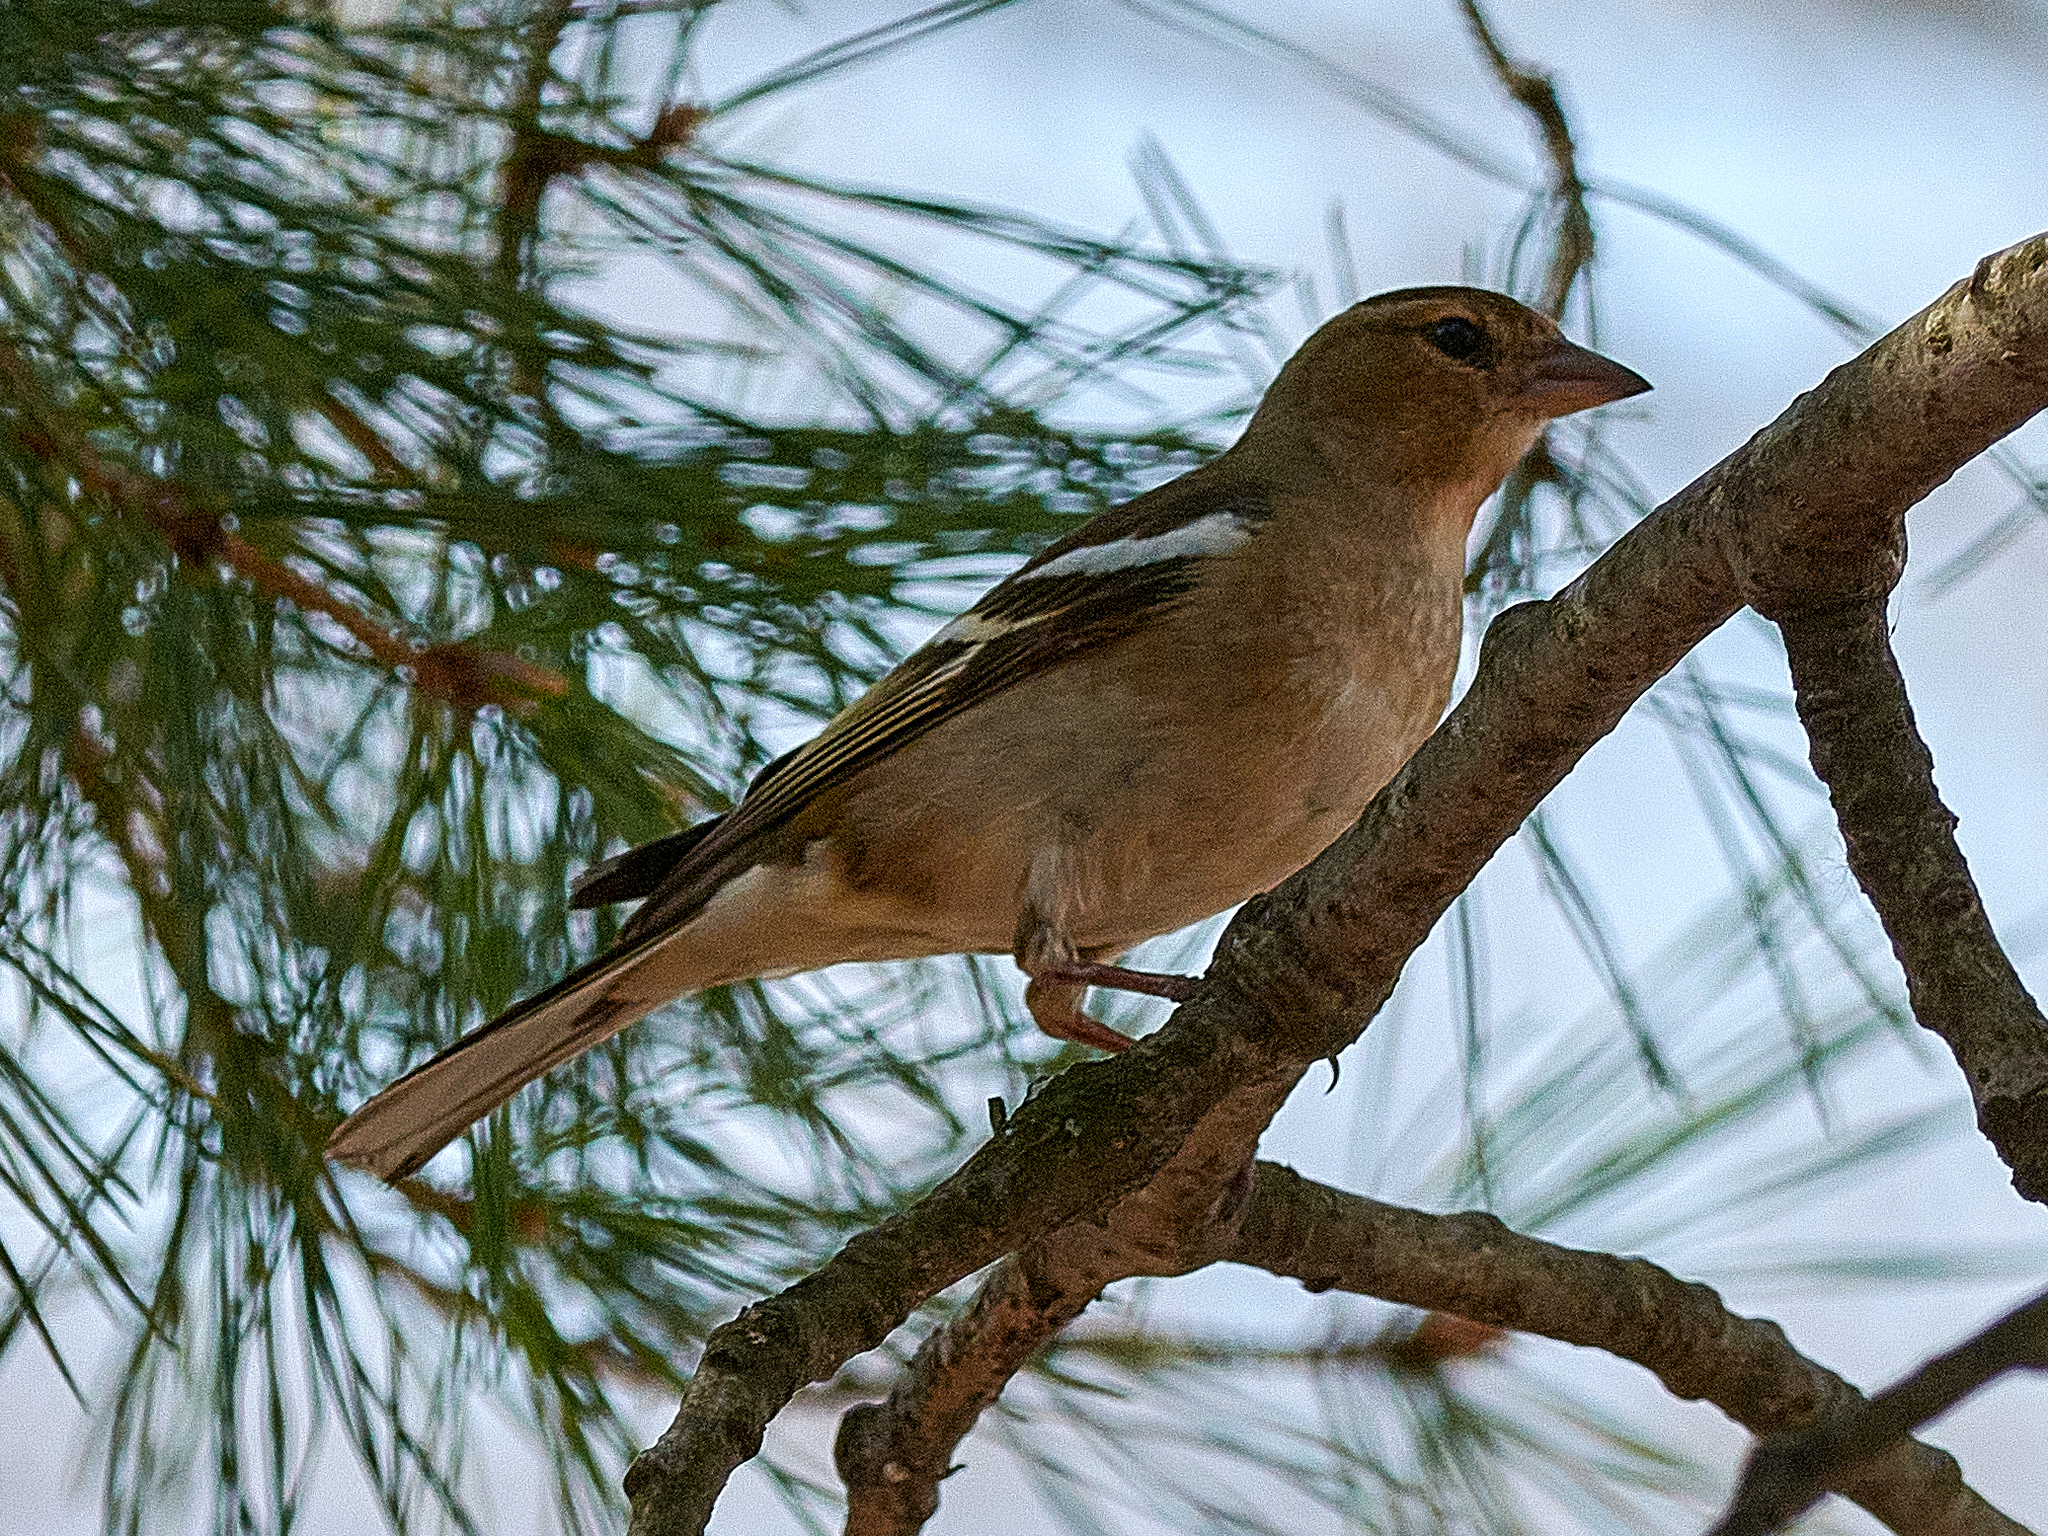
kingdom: Animalia
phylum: Chordata
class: Aves
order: Passeriformes
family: Fringillidae
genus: Fringilla
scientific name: Fringilla coelebs
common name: Common chaffinch
